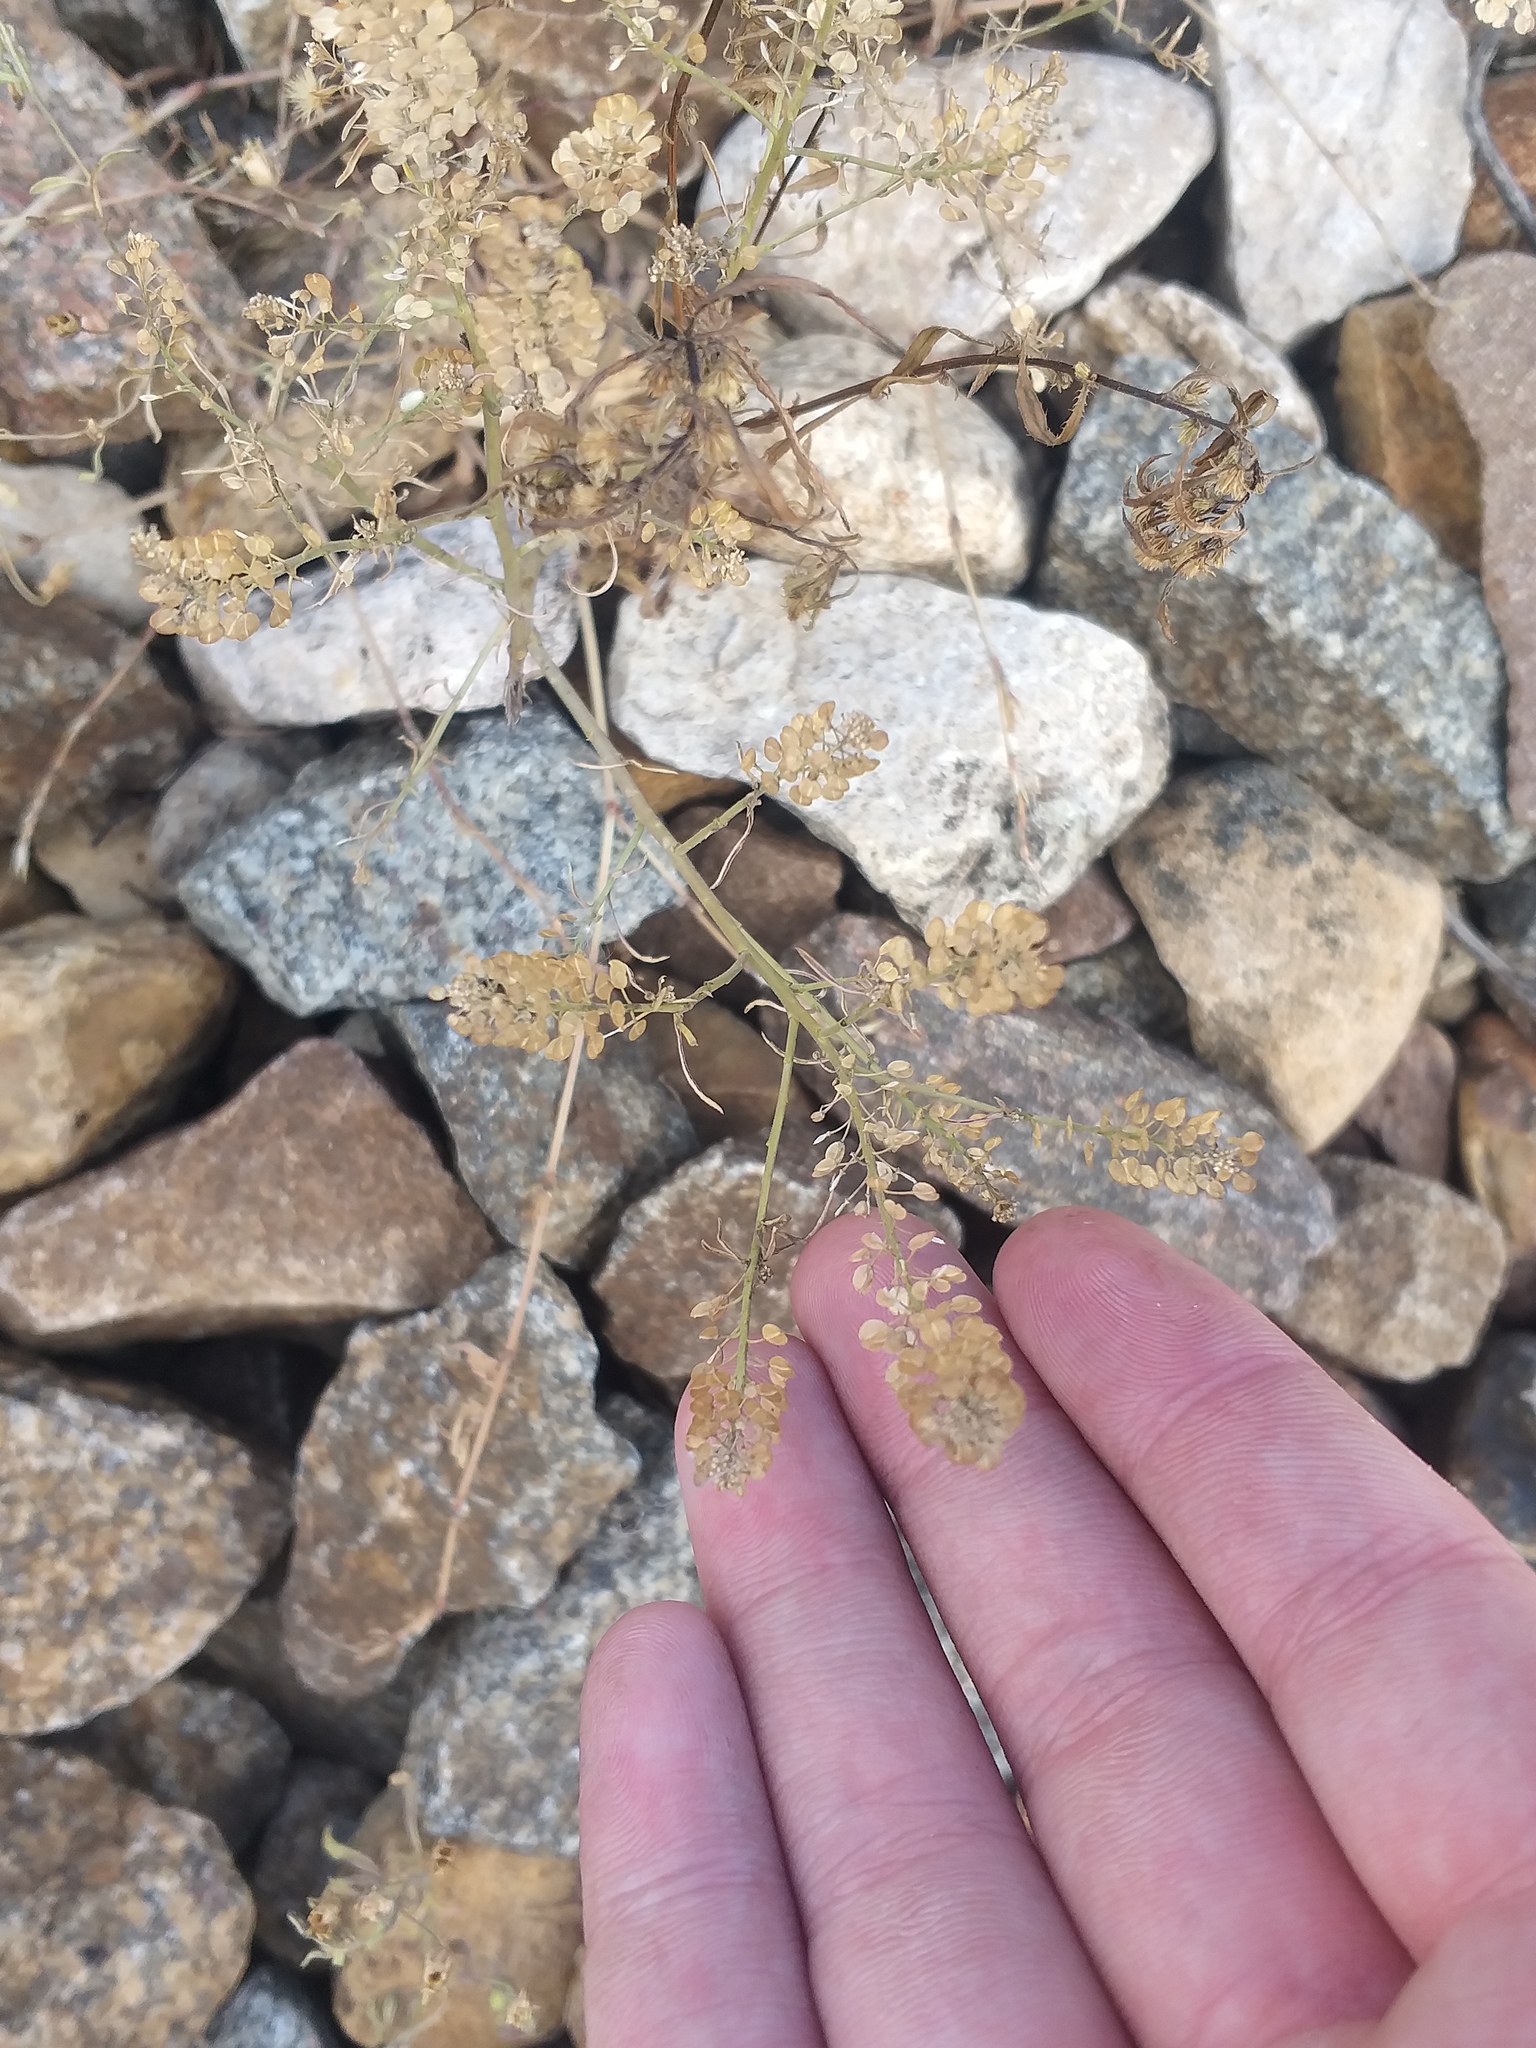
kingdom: Plantae
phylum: Tracheophyta
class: Magnoliopsida
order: Brassicales
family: Brassicaceae
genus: Lepidium
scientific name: Lepidium densiflorum
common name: Miner's pepperwort
